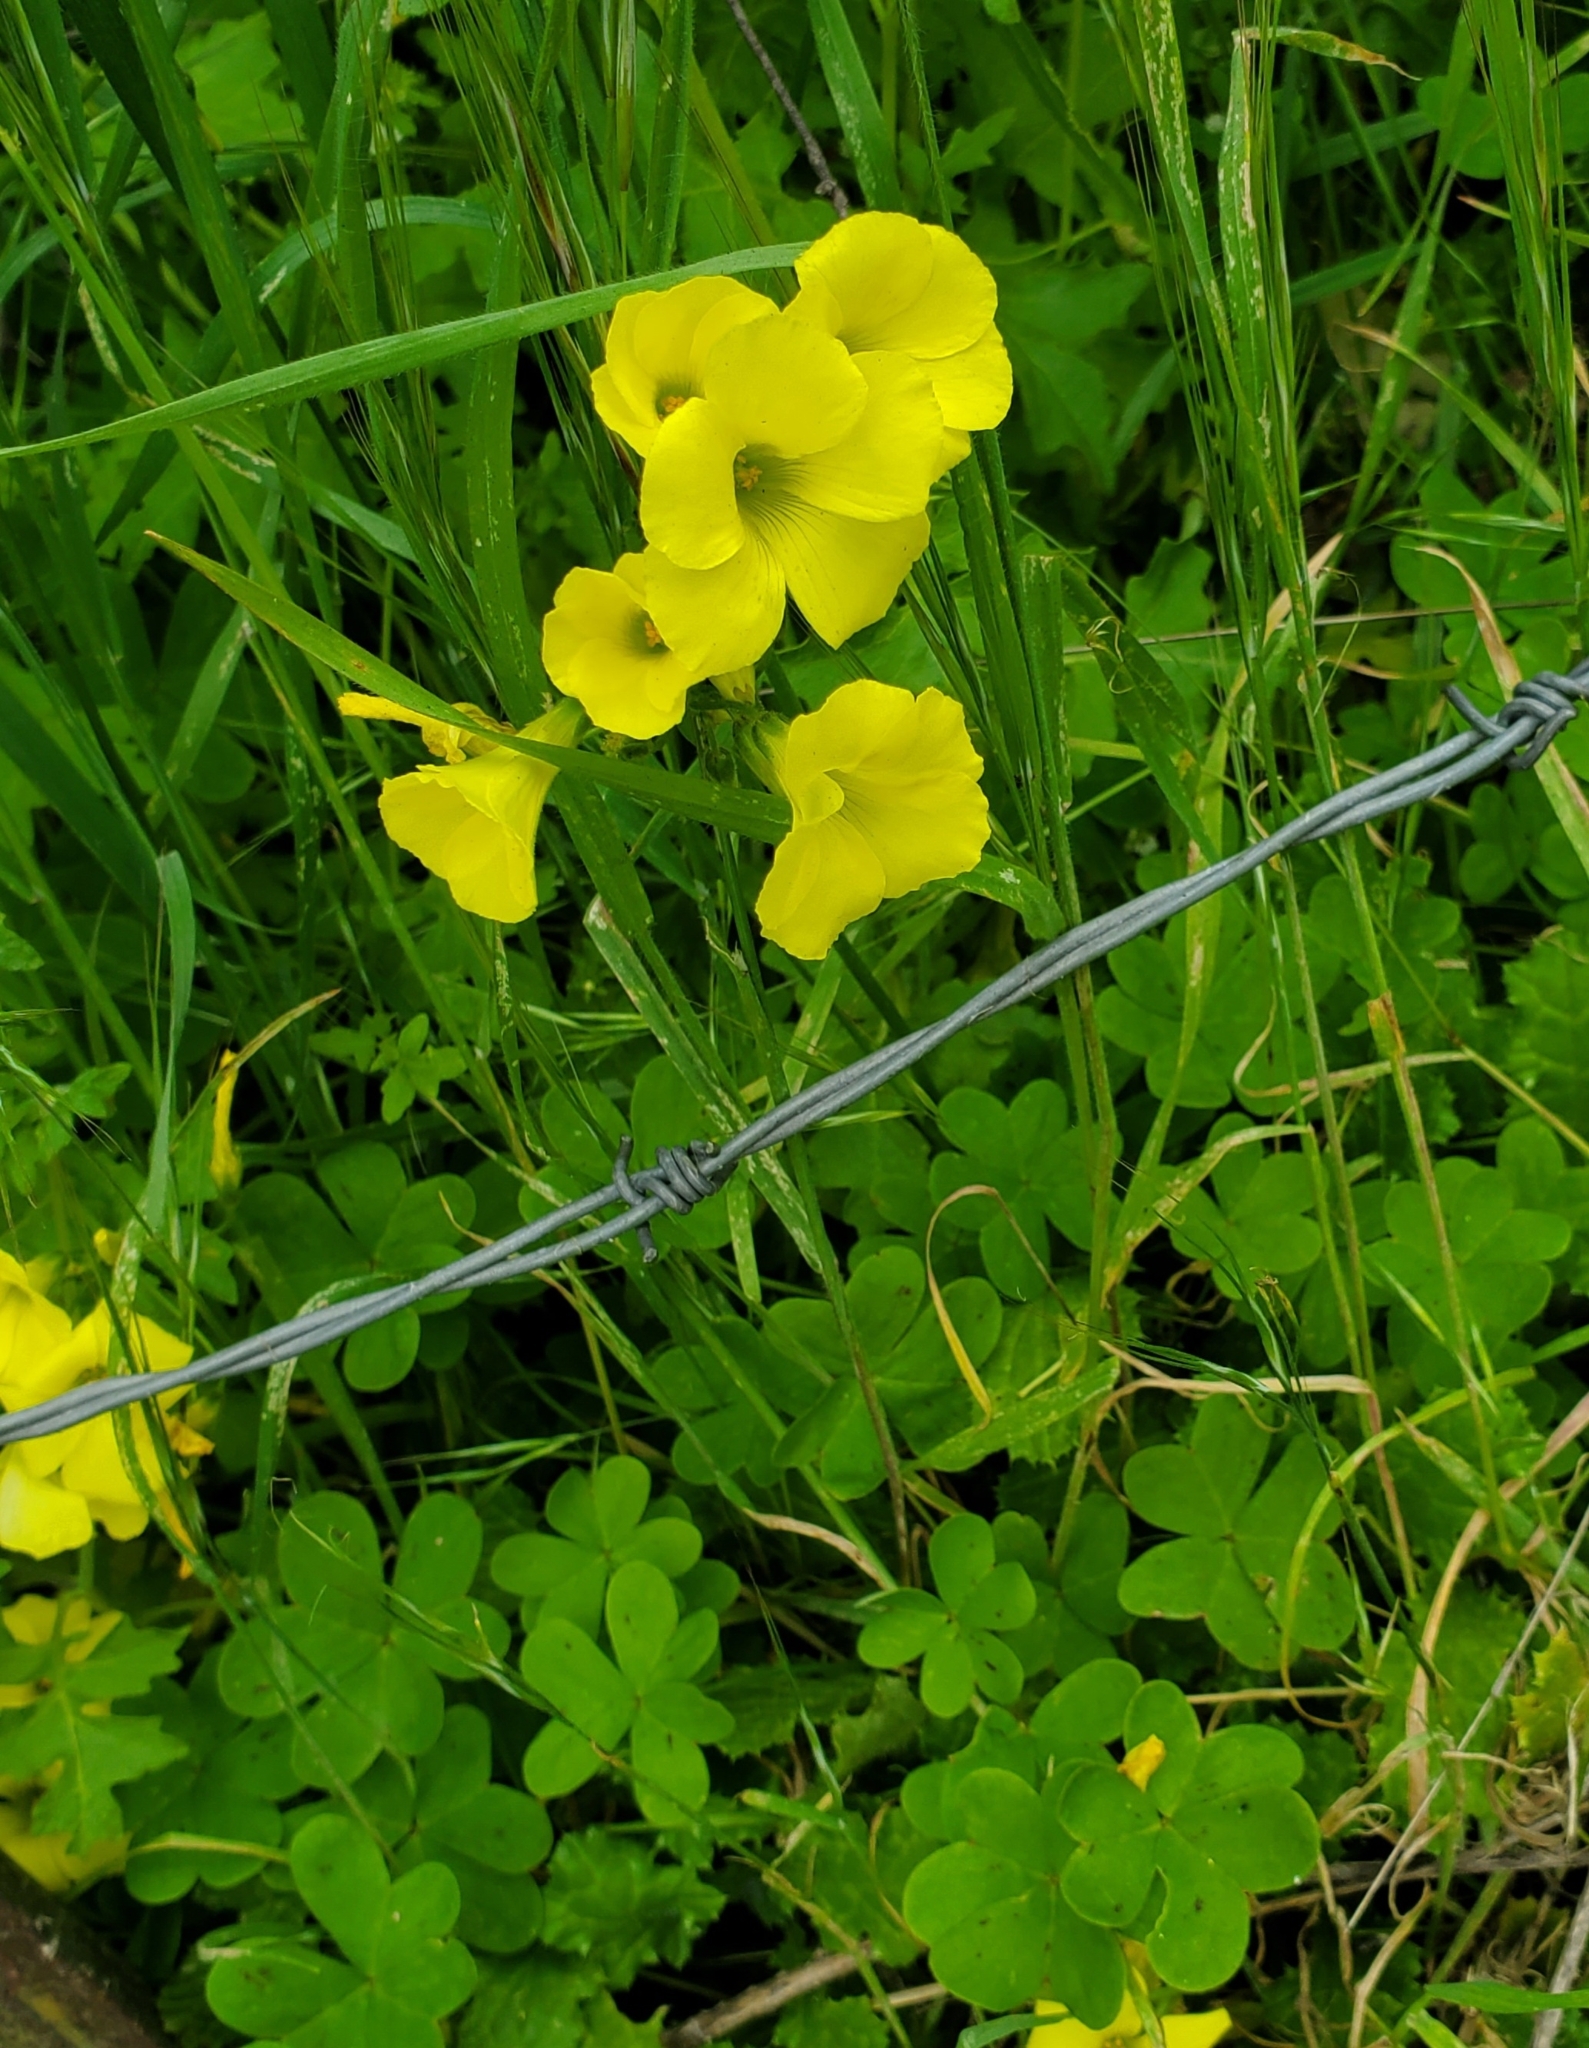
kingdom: Plantae
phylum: Tracheophyta
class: Magnoliopsida
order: Oxalidales
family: Oxalidaceae
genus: Oxalis
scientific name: Oxalis pes-caprae
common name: Bermuda-buttercup
